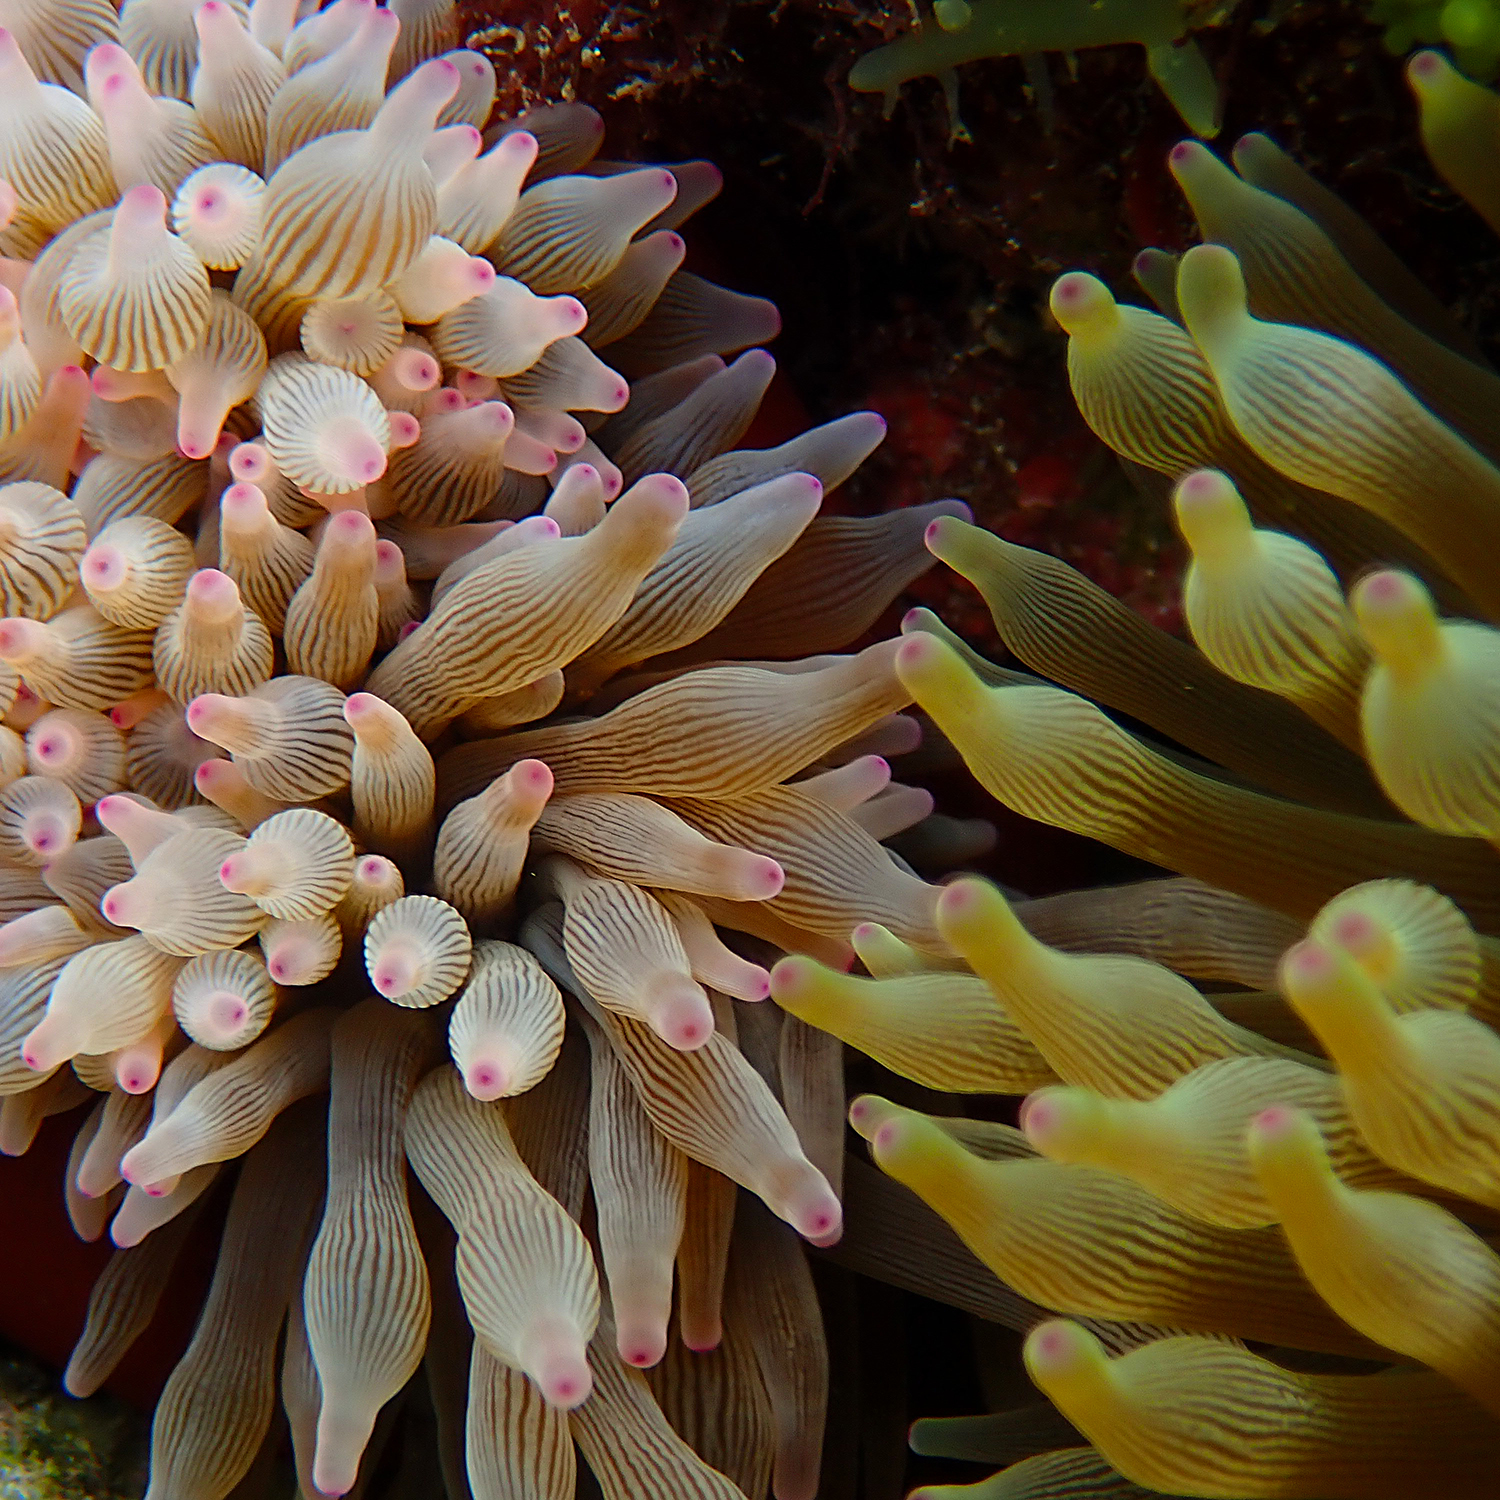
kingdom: Animalia
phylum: Cnidaria
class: Anthozoa
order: Actiniaria
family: Actiniidae
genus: Entacmaea
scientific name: Entacmaea quadricolor
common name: Bulb tentacle sea anemone
